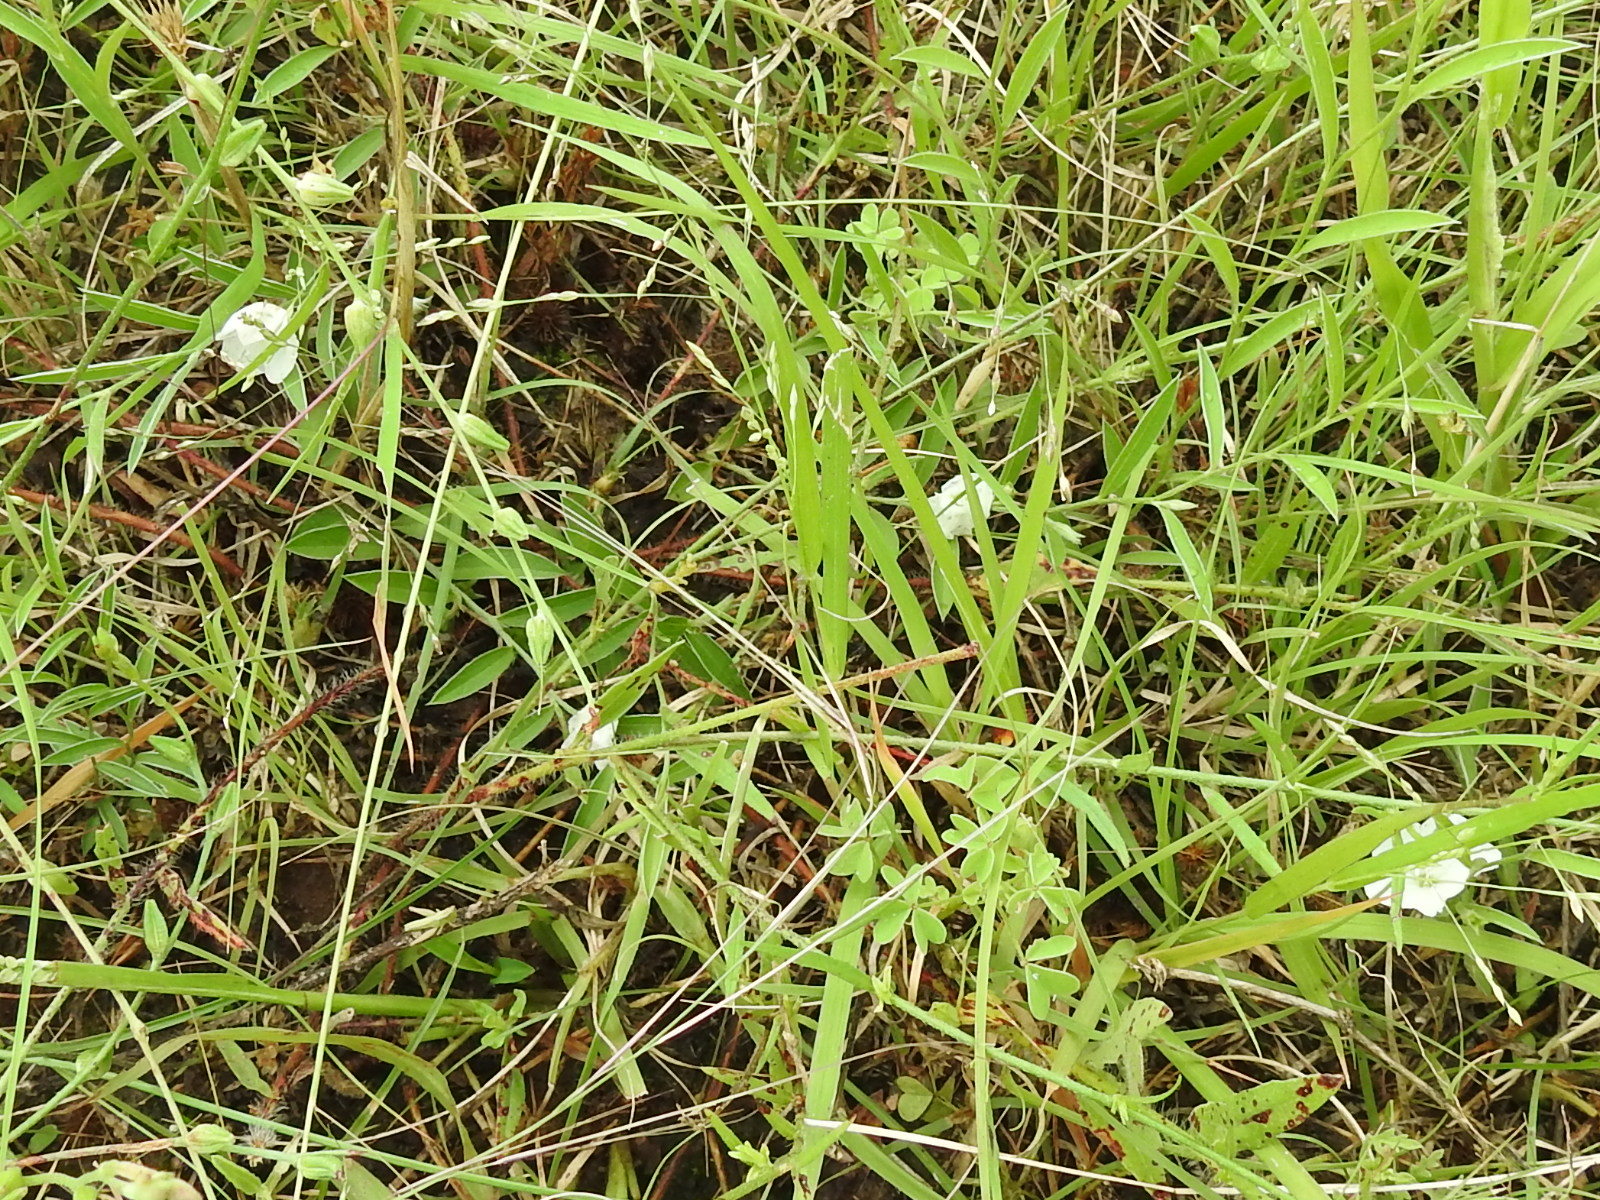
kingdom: Plantae
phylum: Tracheophyta
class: Magnoliopsida
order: Solanales
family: Convolvulaceae
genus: Evolvulus
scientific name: Evolvulus sericeus
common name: Blue dots
